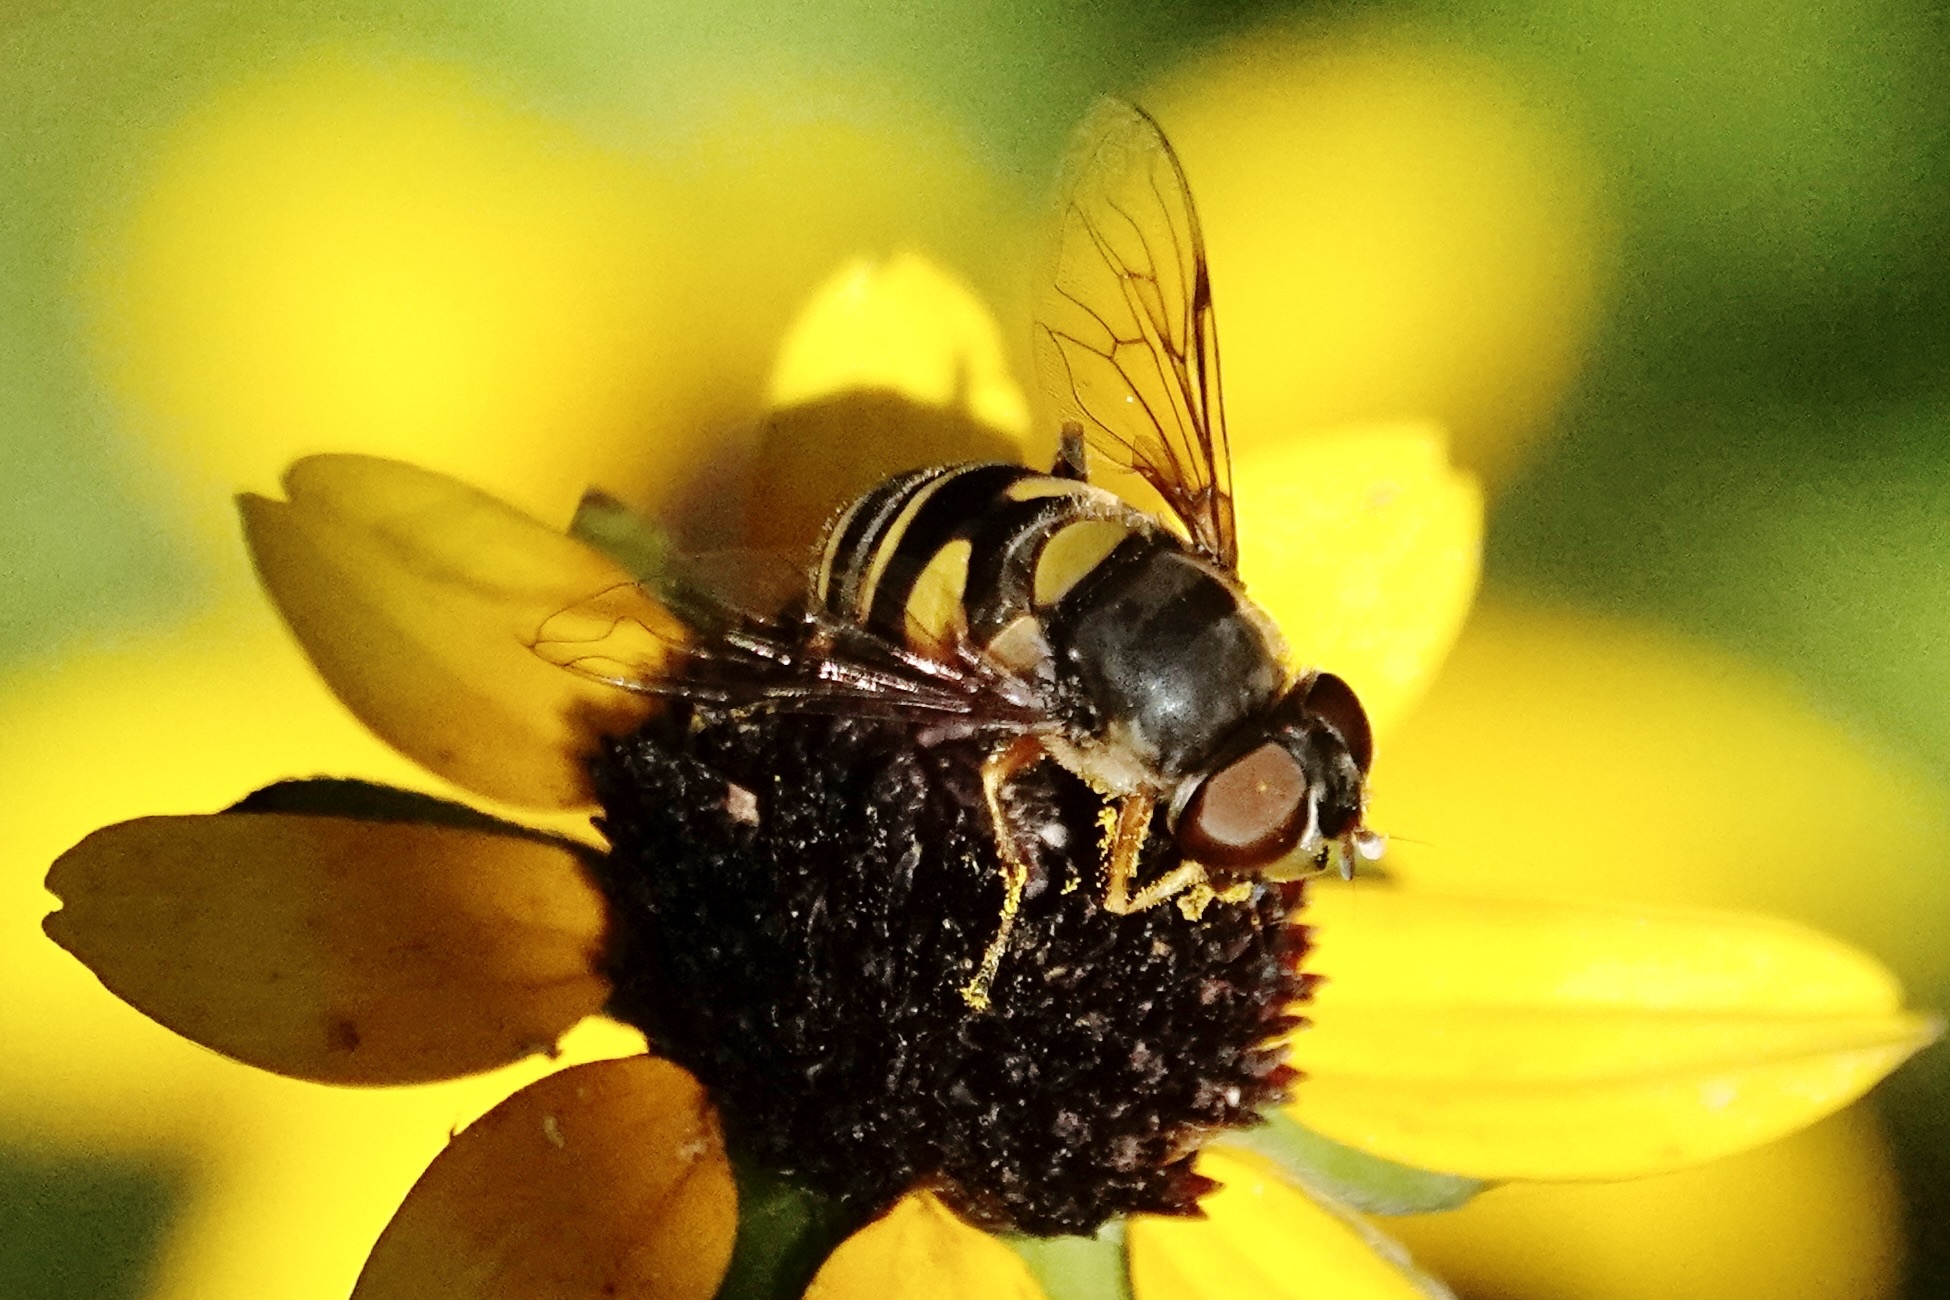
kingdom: Animalia
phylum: Arthropoda
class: Insecta
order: Diptera
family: Syrphidae
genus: Eristalis
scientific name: Eristalis transversa
